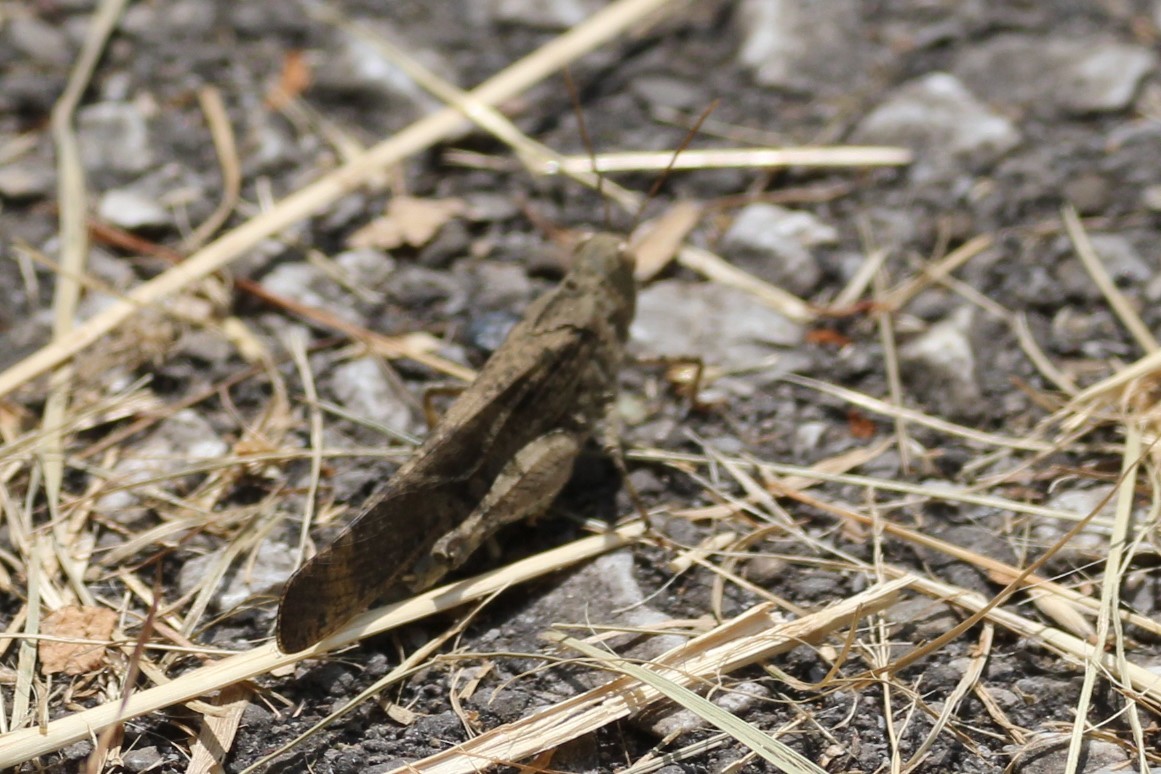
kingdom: Animalia
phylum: Arthropoda
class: Insecta
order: Orthoptera
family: Acrididae
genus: Dissosteira
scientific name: Dissosteira carolina
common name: Carolina grasshopper
